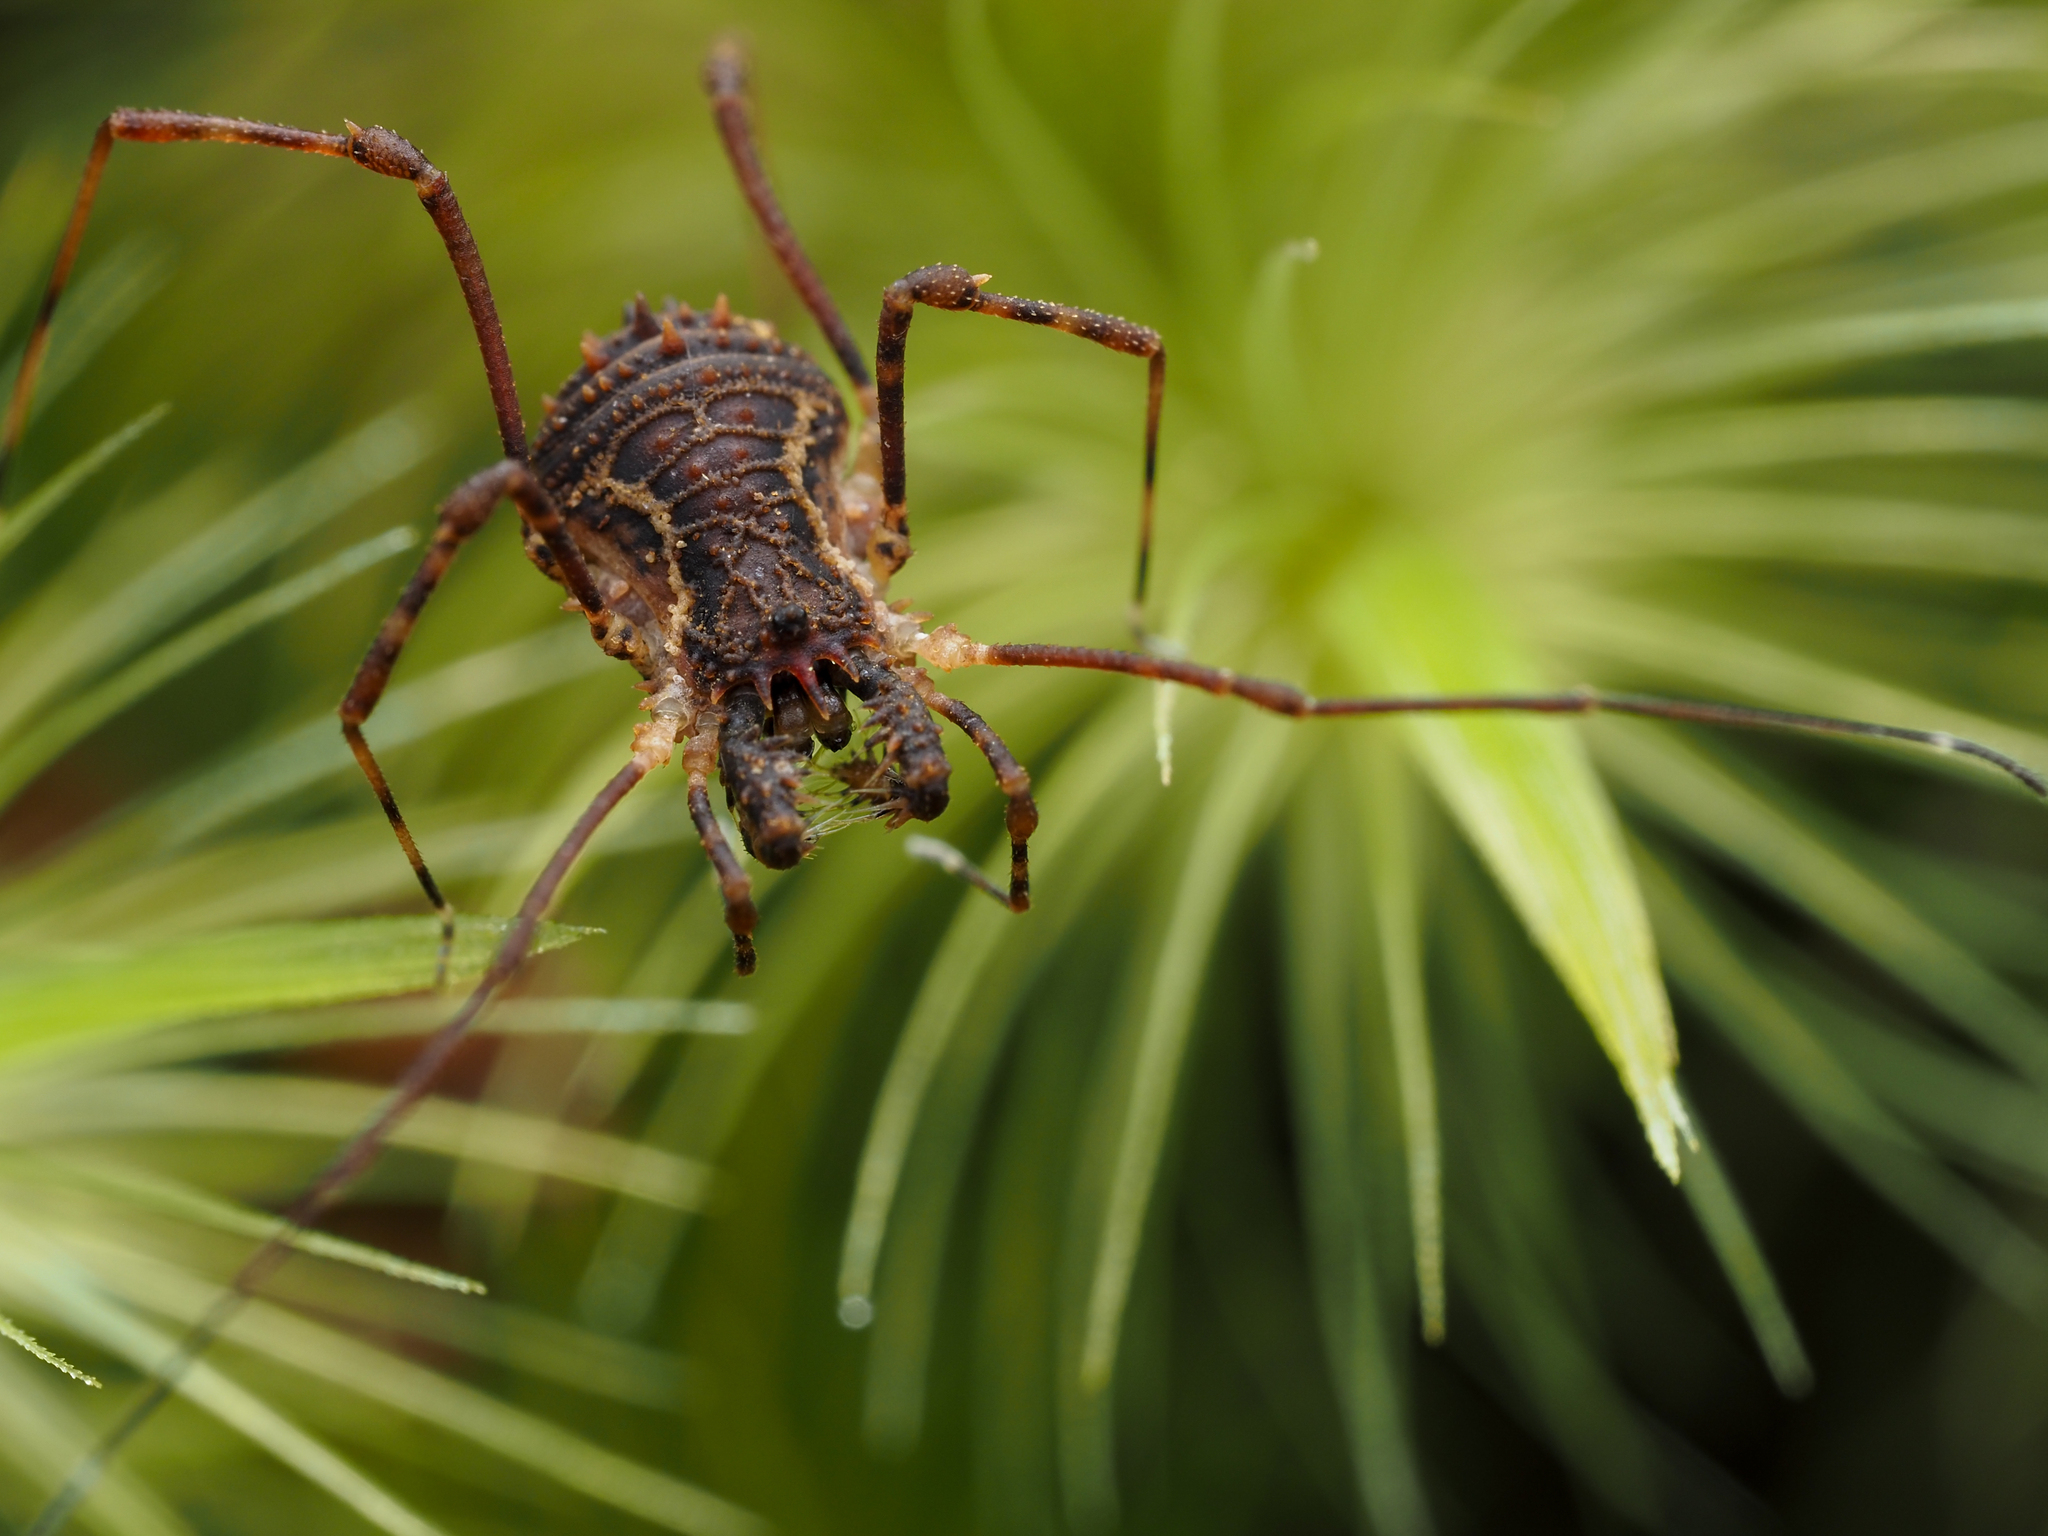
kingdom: Animalia
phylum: Arthropoda
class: Arachnida
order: Opiliones
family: Triaenonychidae
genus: Algidia
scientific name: Algidia chiltoni
